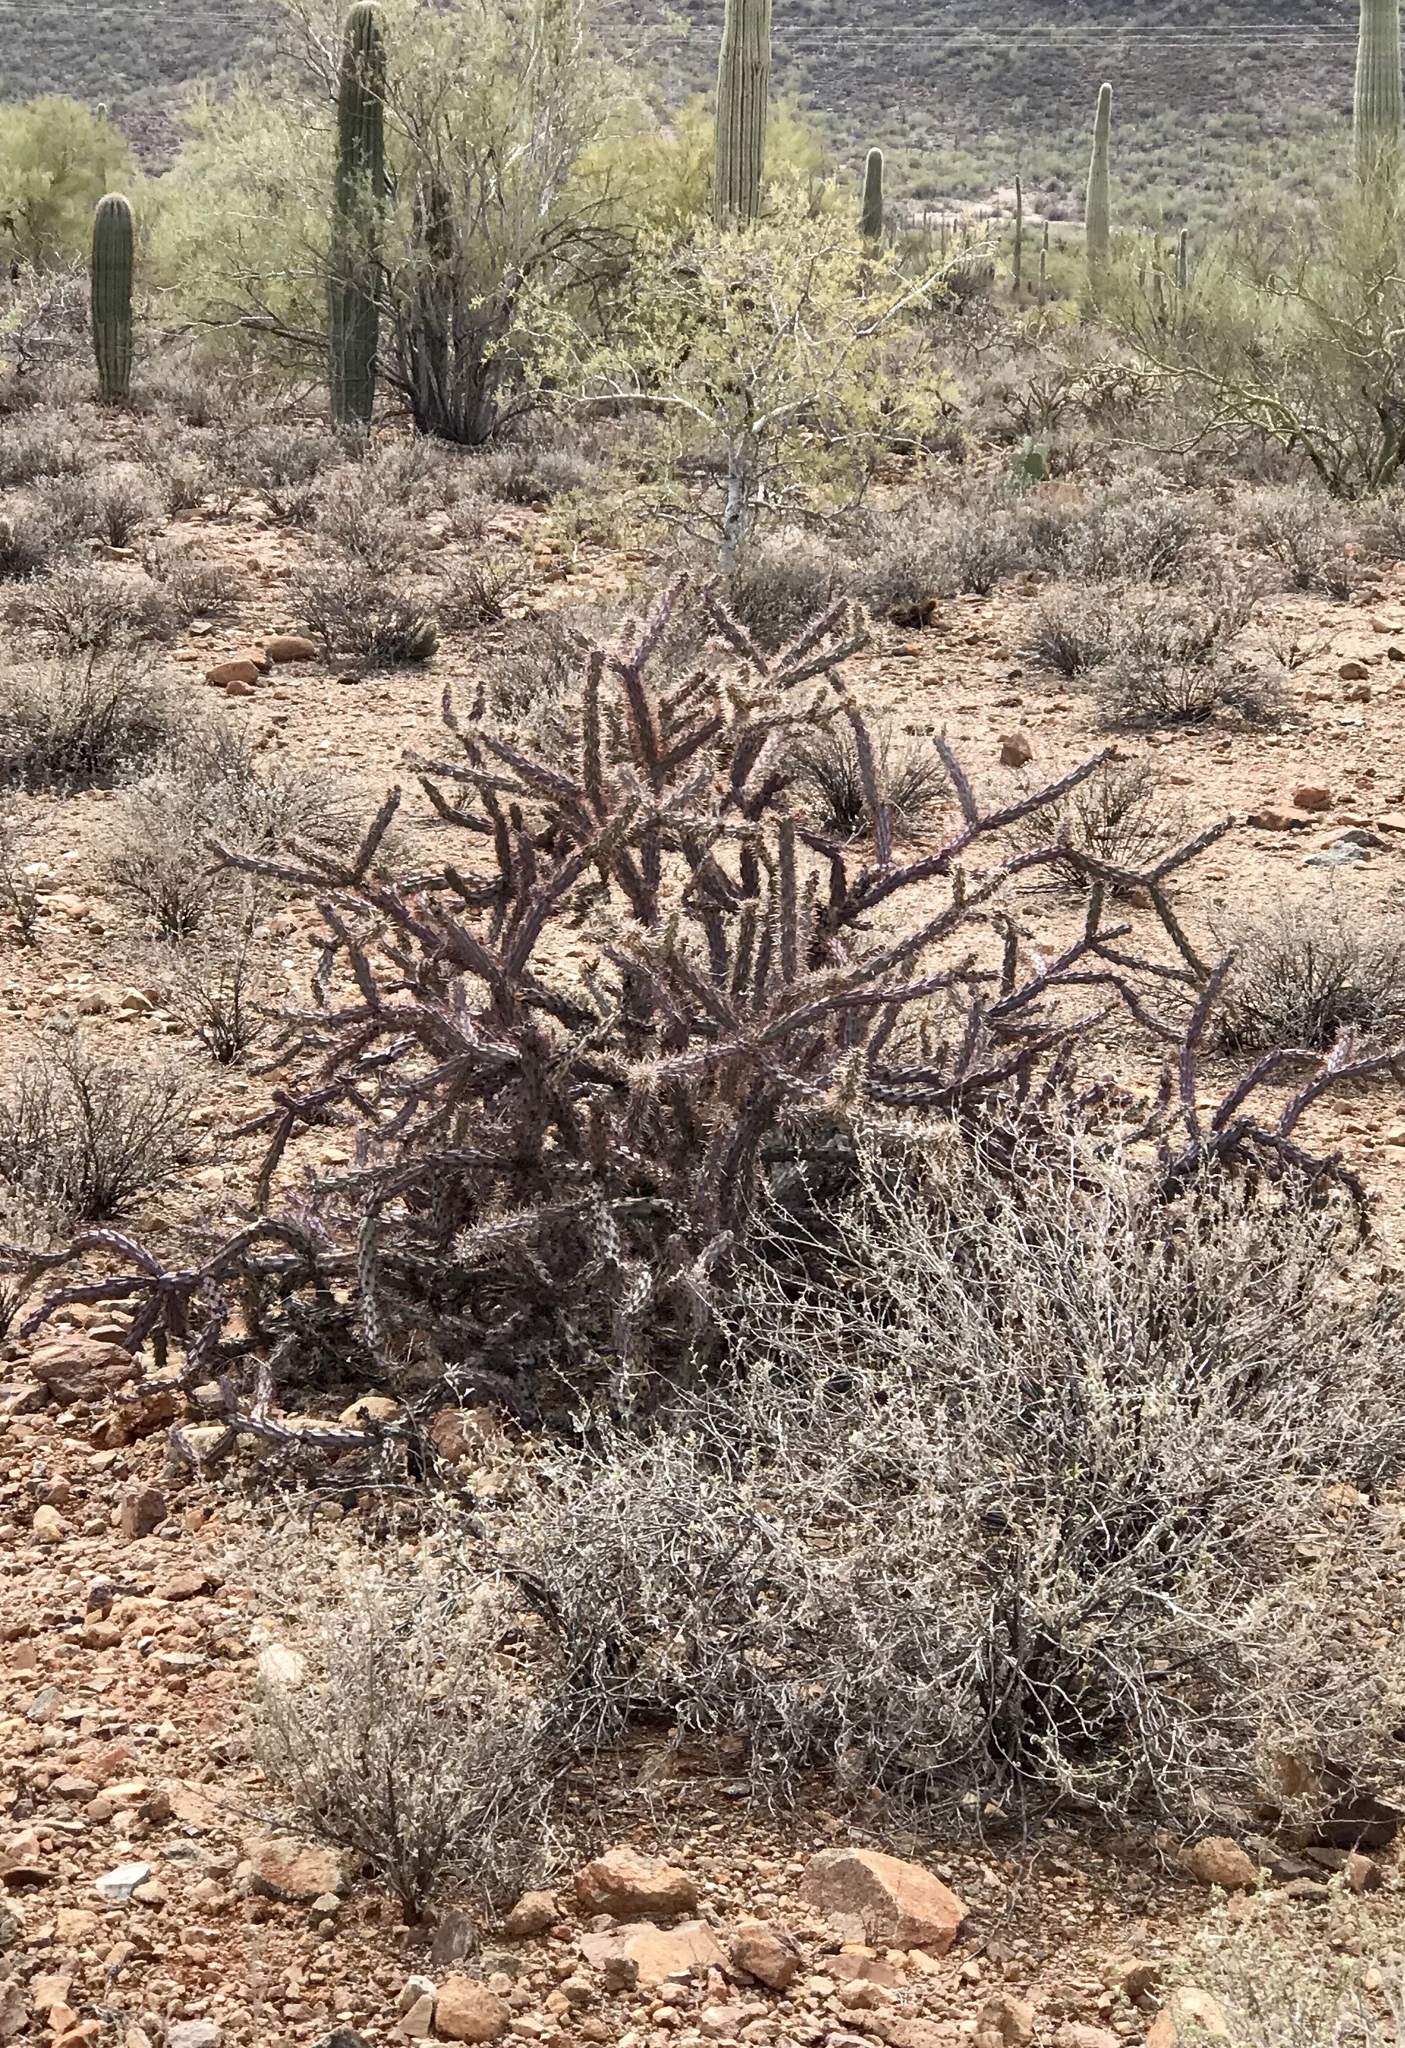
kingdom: Plantae
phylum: Tracheophyta
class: Magnoliopsida
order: Caryophyllales
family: Cactaceae
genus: Cylindropuntia
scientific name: Cylindropuntia thurberi
